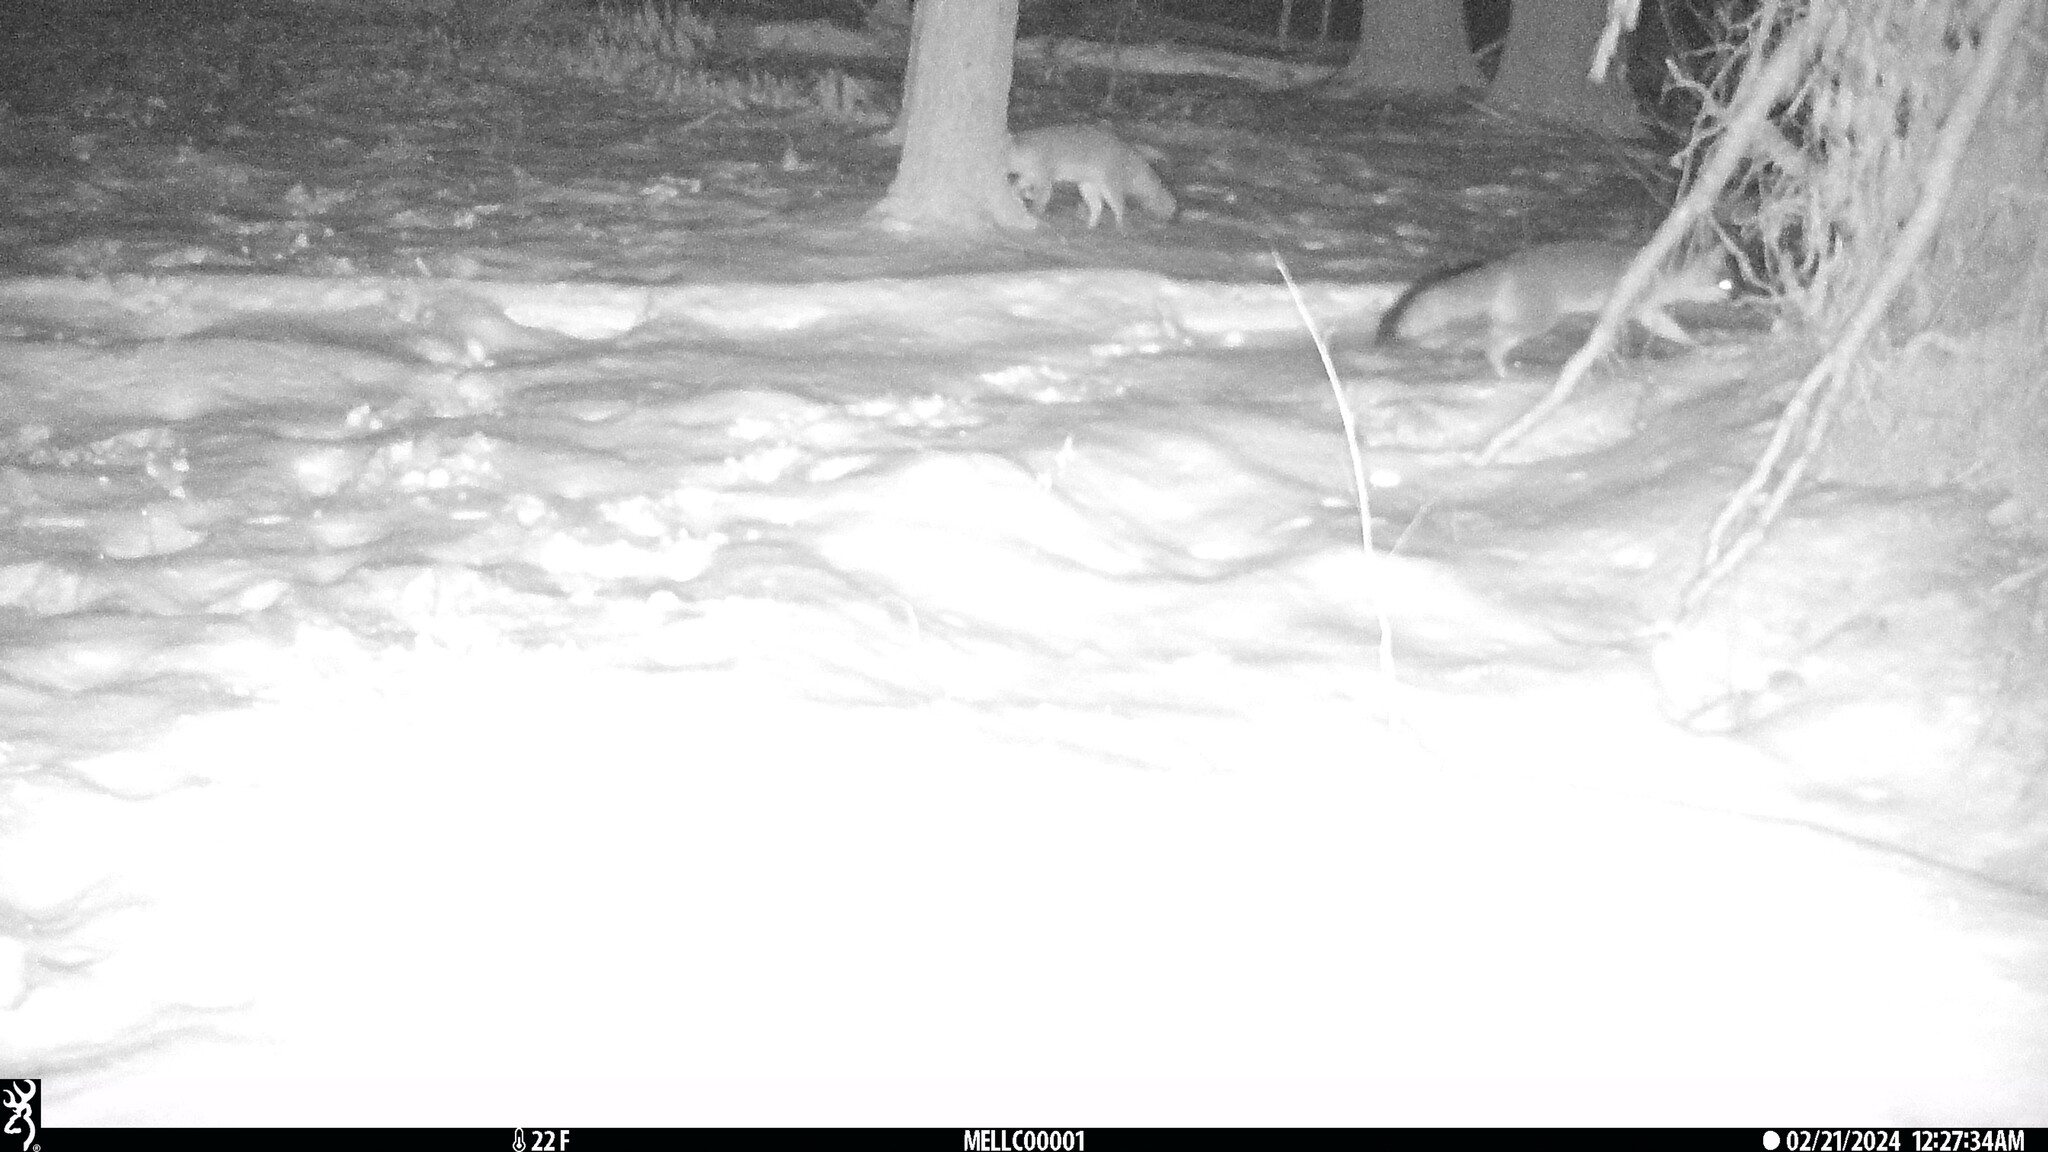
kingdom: Animalia
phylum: Chordata
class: Mammalia
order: Carnivora
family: Canidae
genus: Urocyon
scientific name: Urocyon cinereoargenteus
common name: Gray fox
